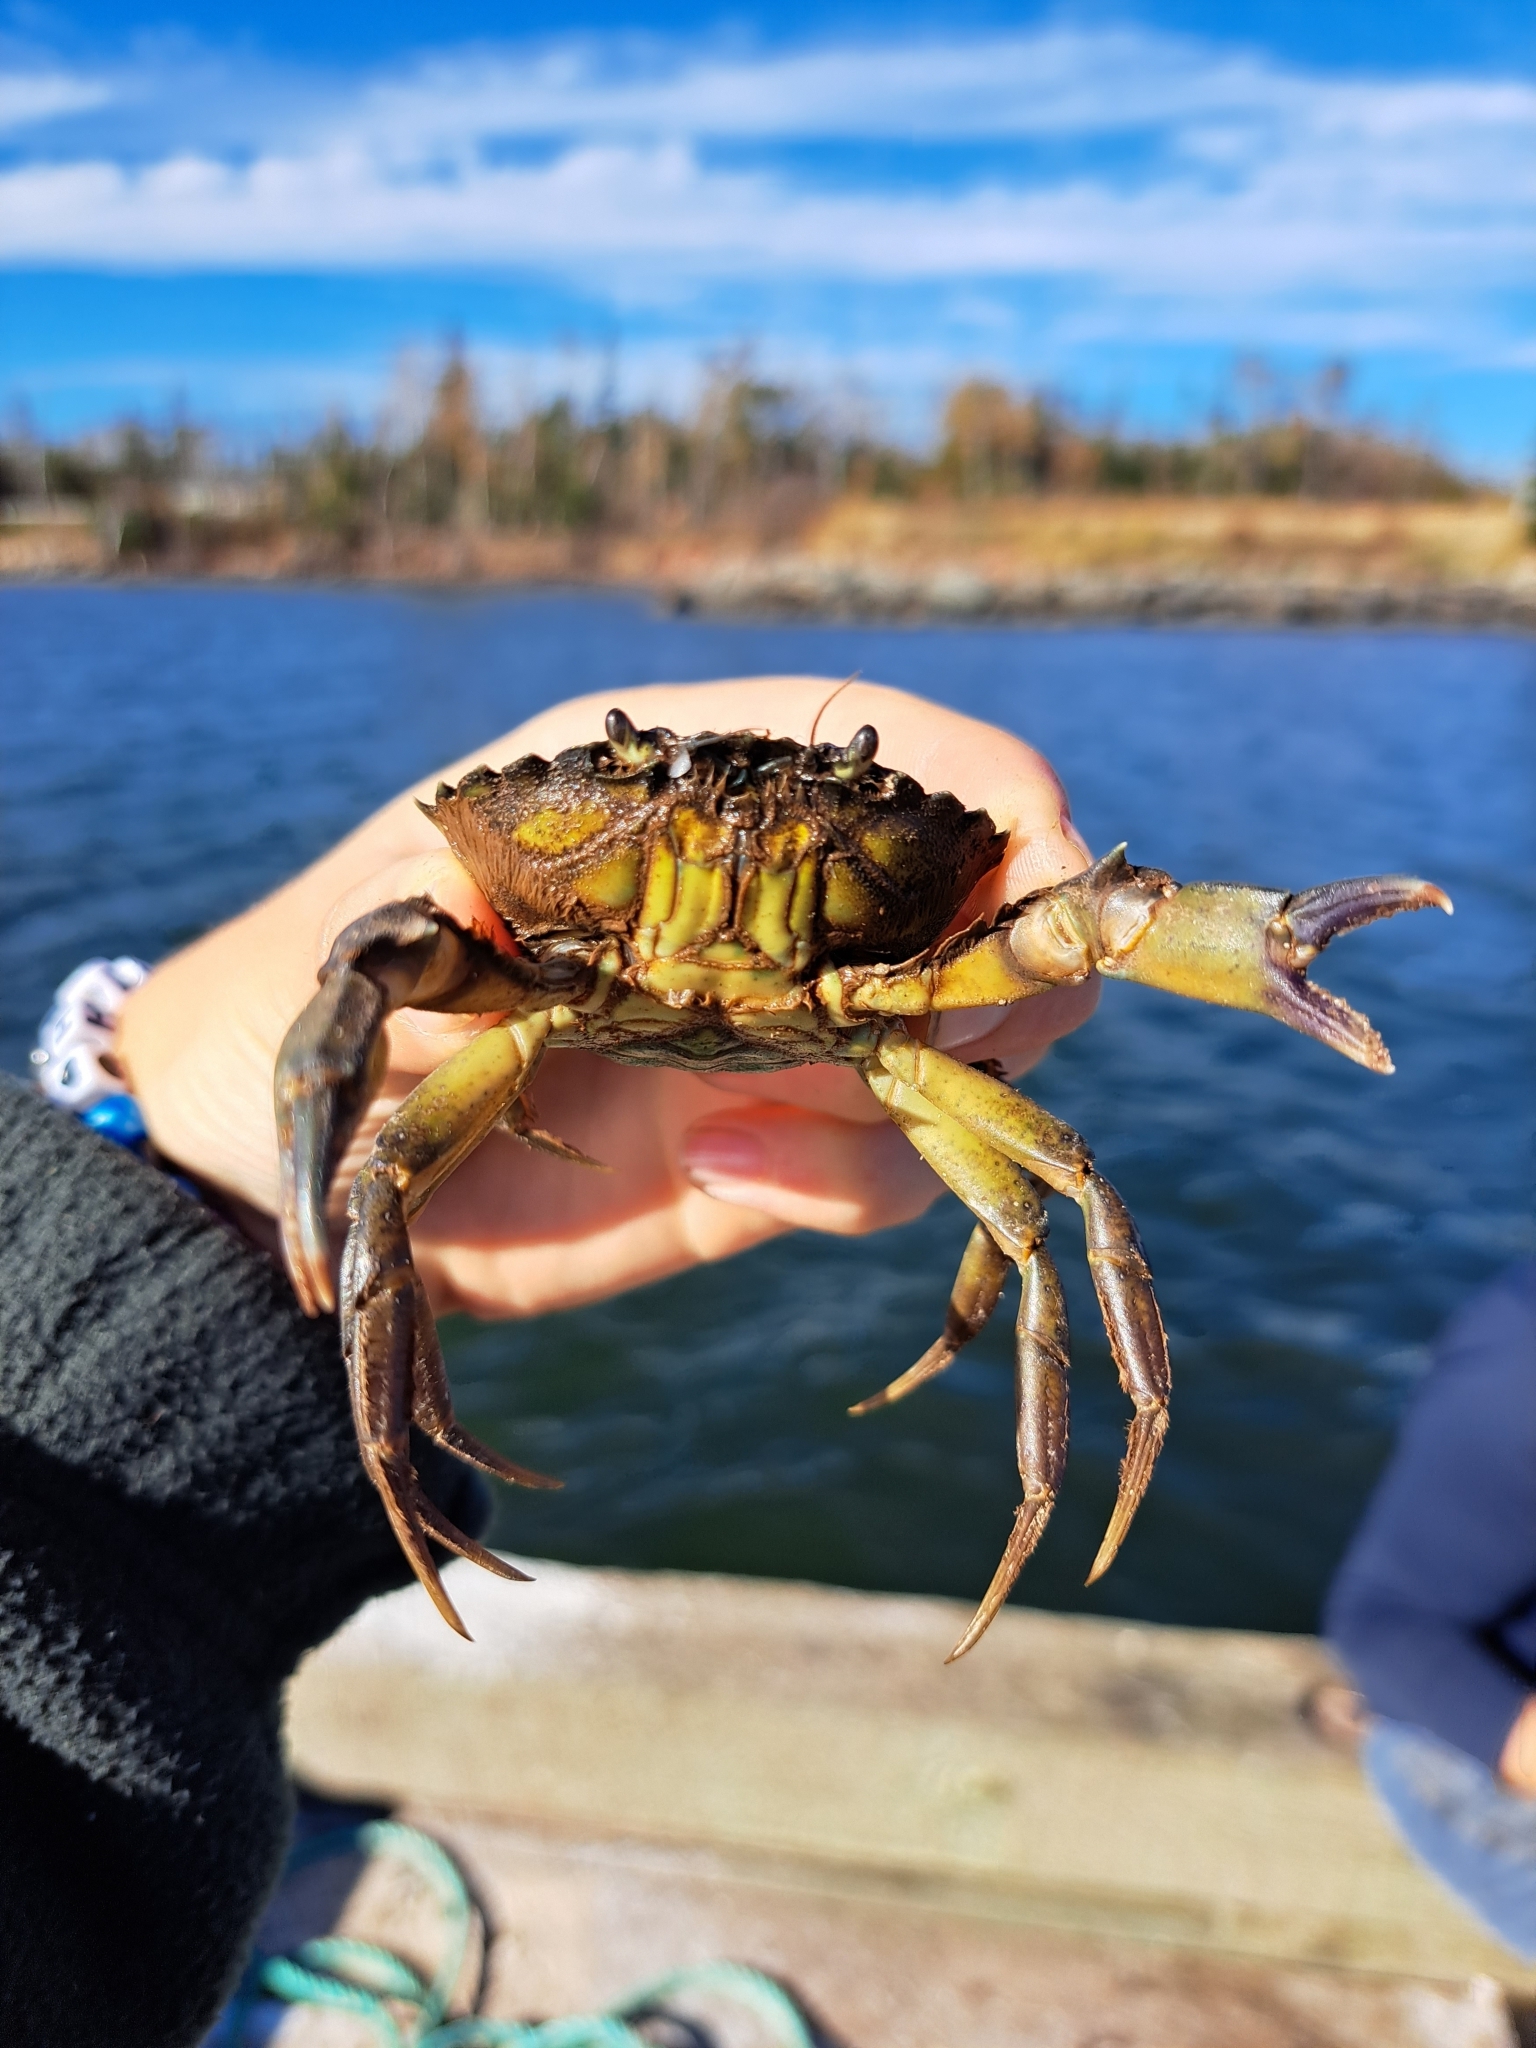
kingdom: Animalia
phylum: Arthropoda
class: Malacostraca
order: Decapoda
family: Carcinidae
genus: Carcinus
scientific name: Carcinus maenas
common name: European green crab
